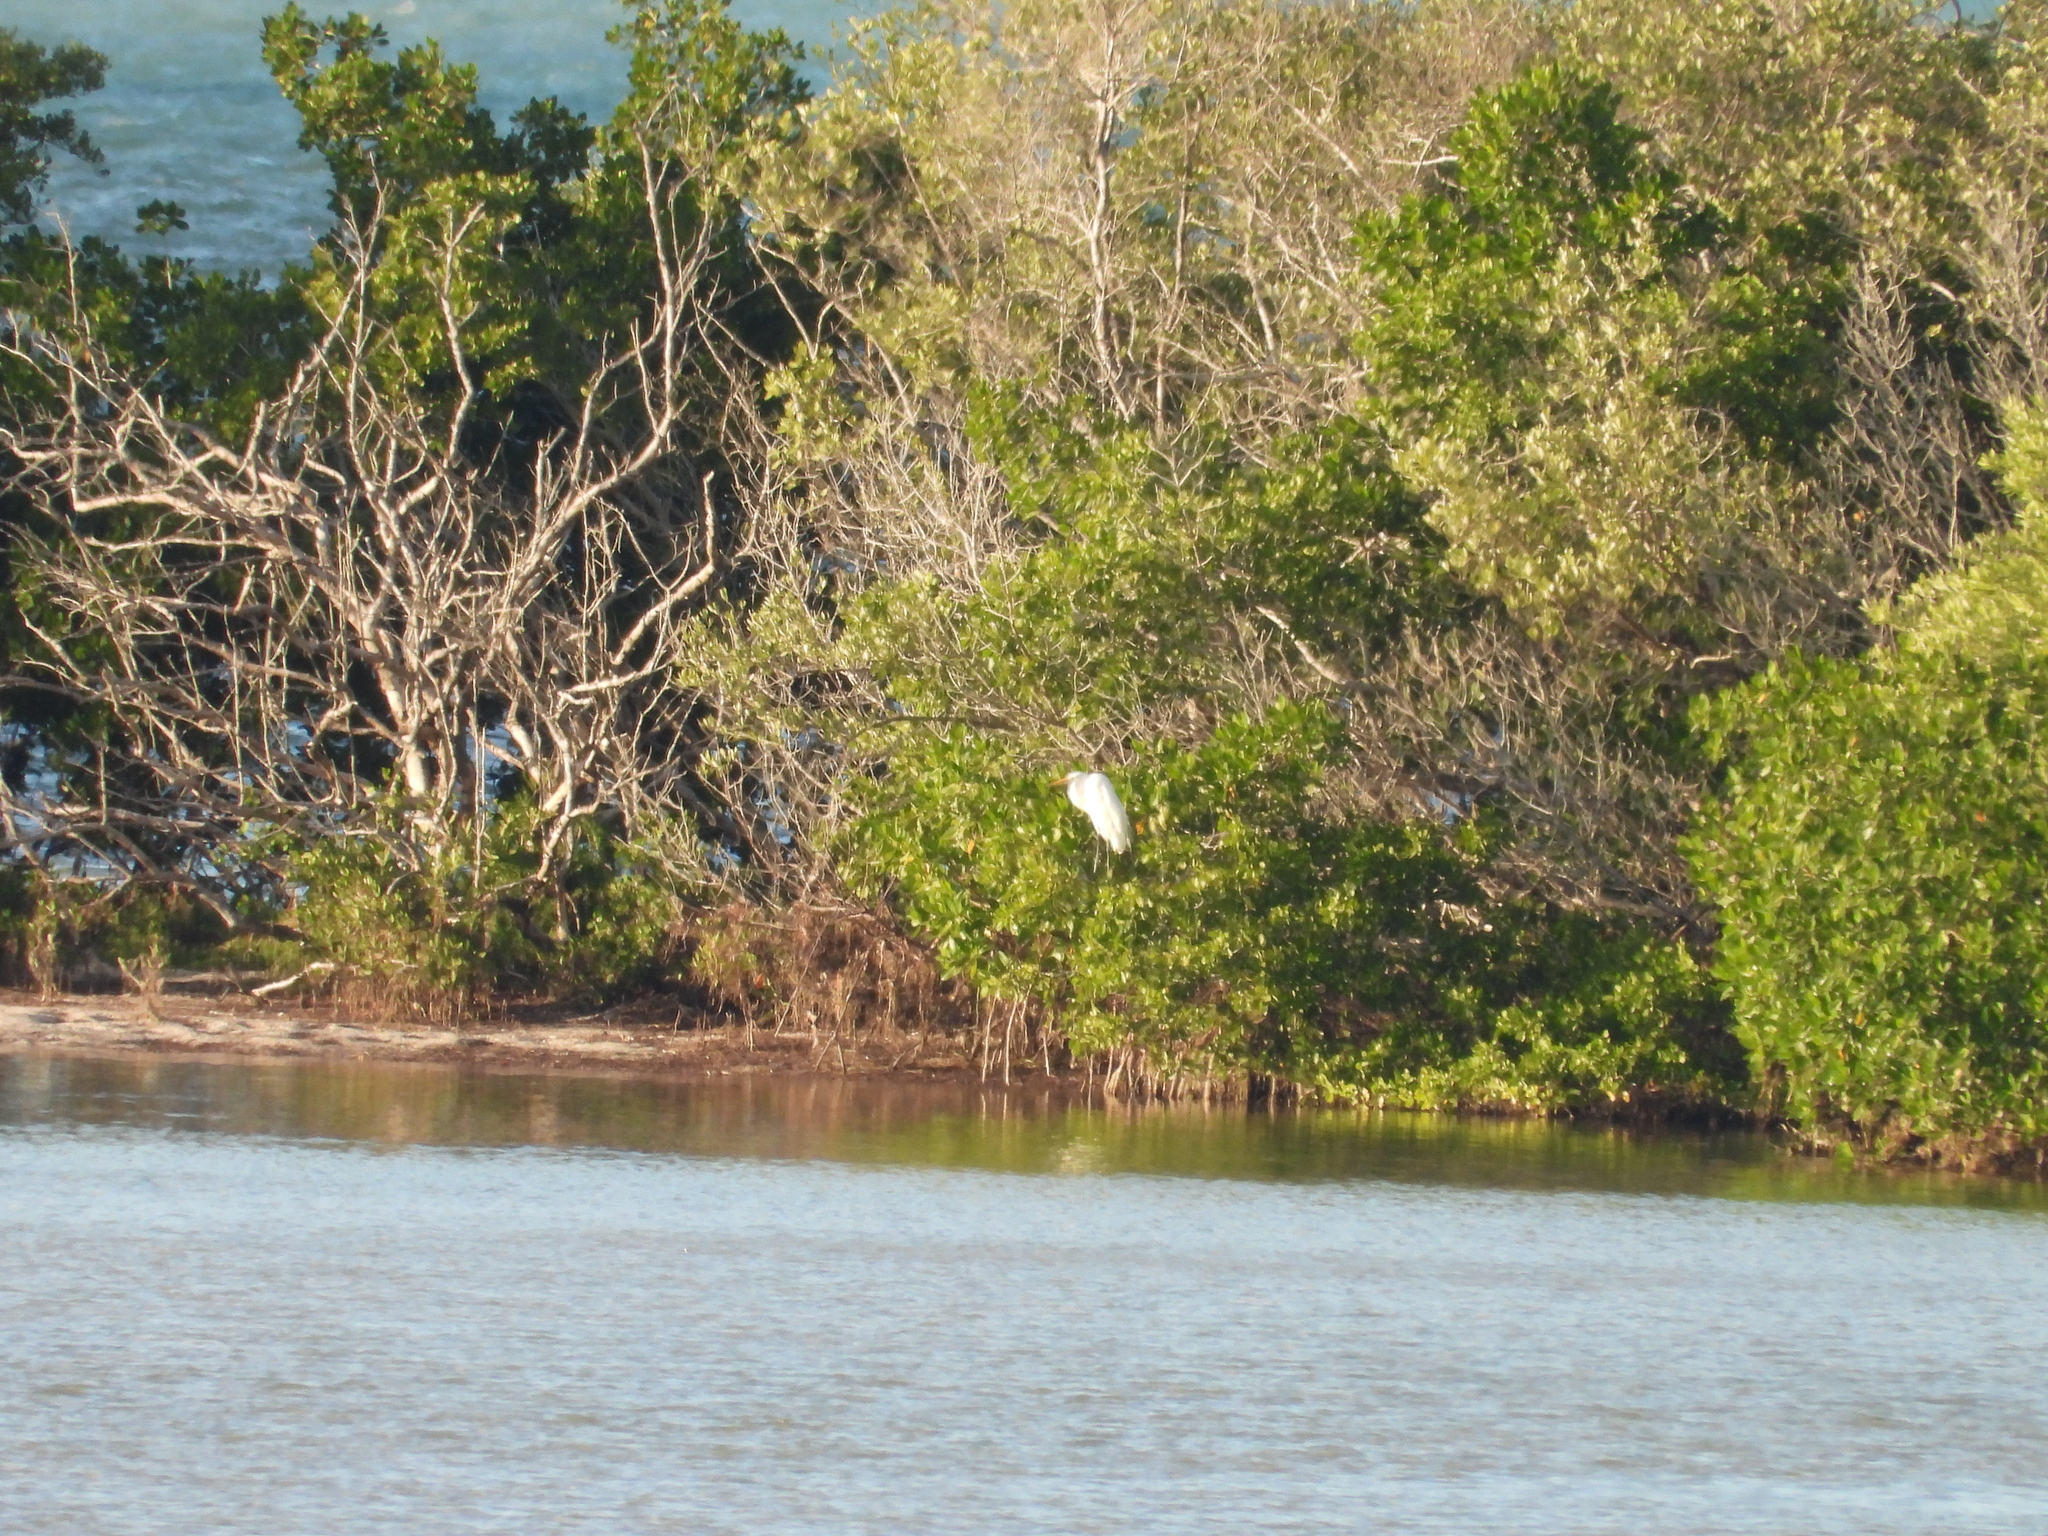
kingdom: Animalia
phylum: Chordata
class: Aves
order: Pelecaniformes
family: Ardeidae
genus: Ardea
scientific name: Ardea alba
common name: Great egret
